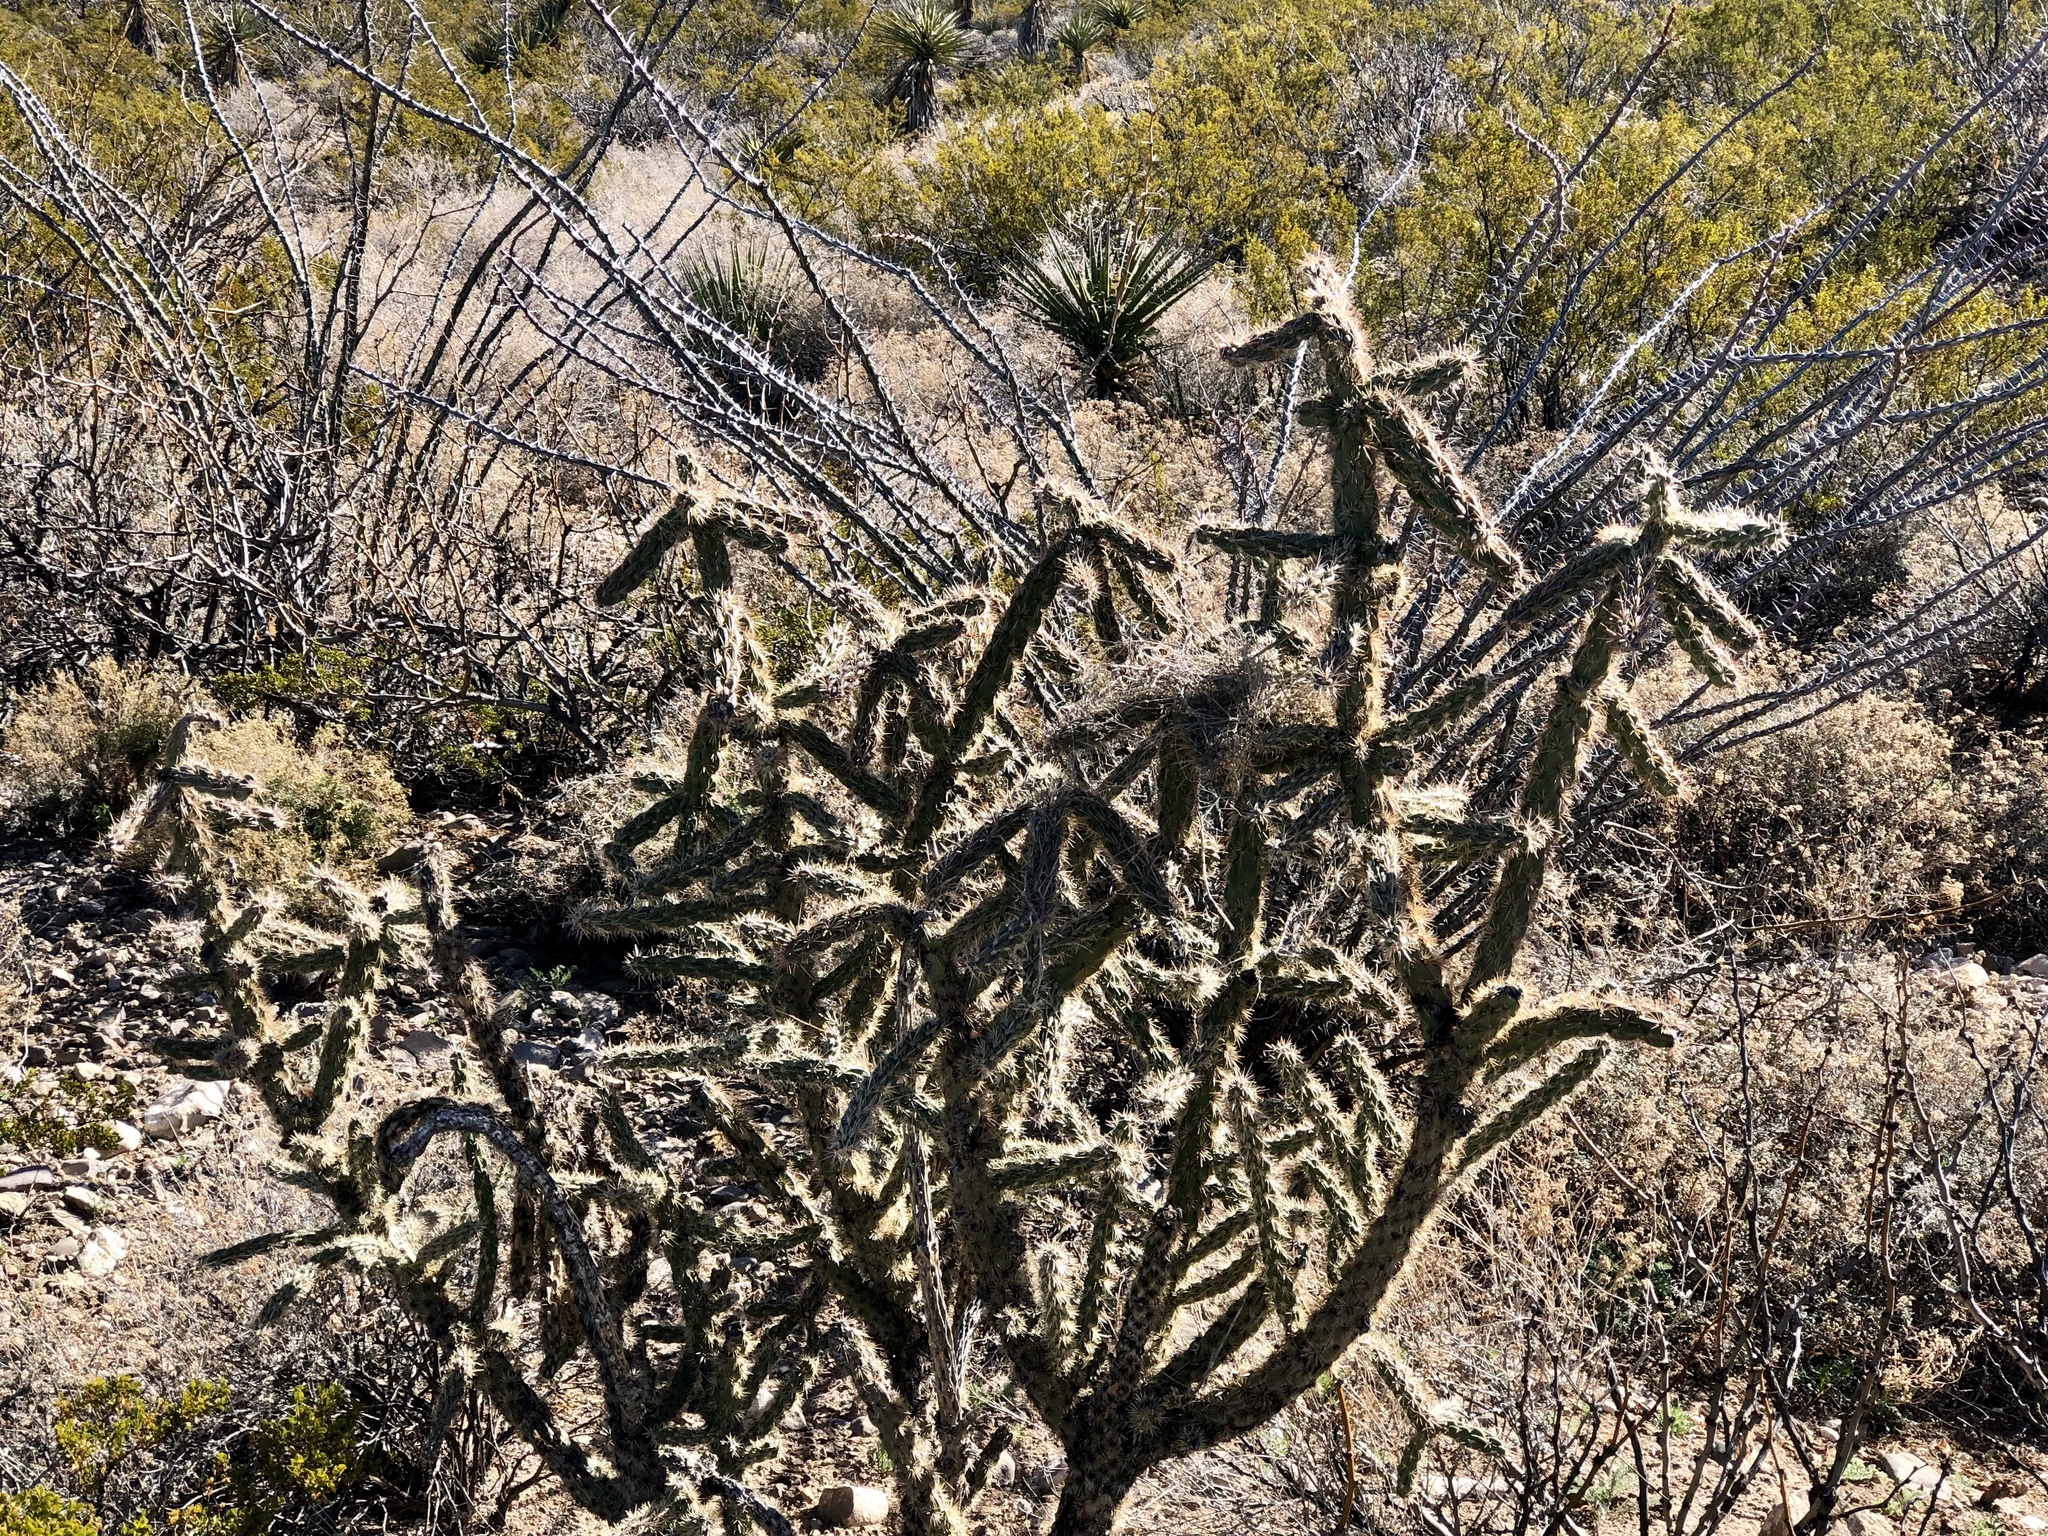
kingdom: Plantae
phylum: Tracheophyta
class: Magnoliopsida
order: Caryophyllales
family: Cactaceae
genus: Cylindropuntia
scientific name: Cylindropuntia imbricata
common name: Candelabrum cactus
